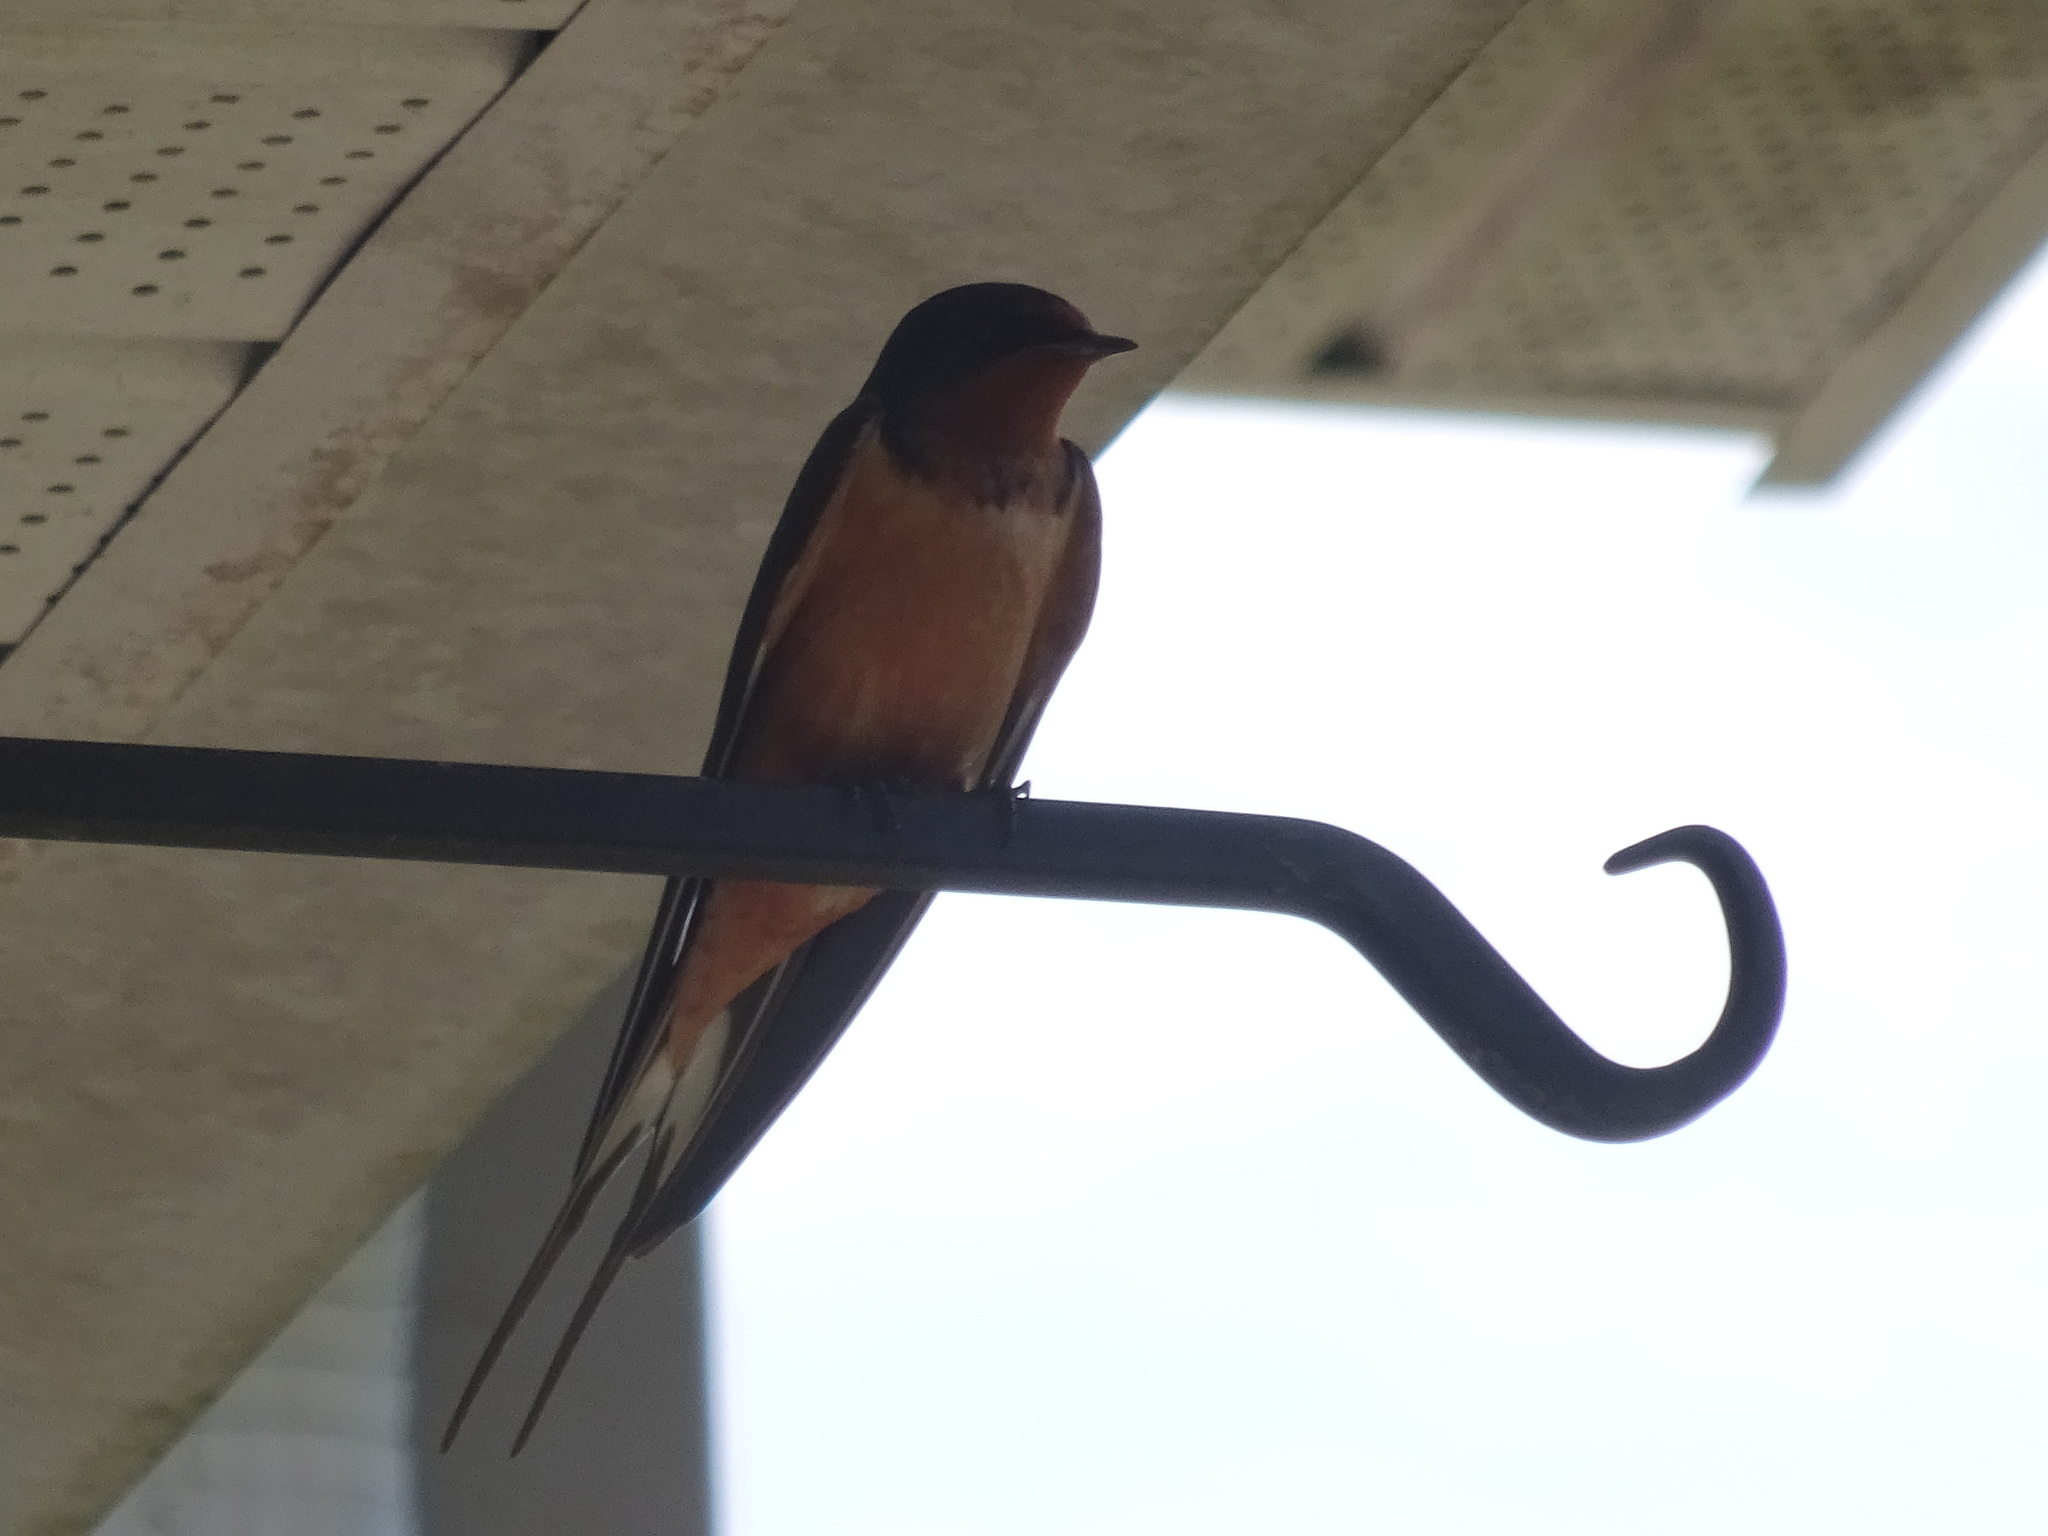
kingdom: Animalia
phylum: Chordata
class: Aves
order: Passeriformes
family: Hirundinidae
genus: Hirundo
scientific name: Hirundo rustica
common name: Barn swallow
